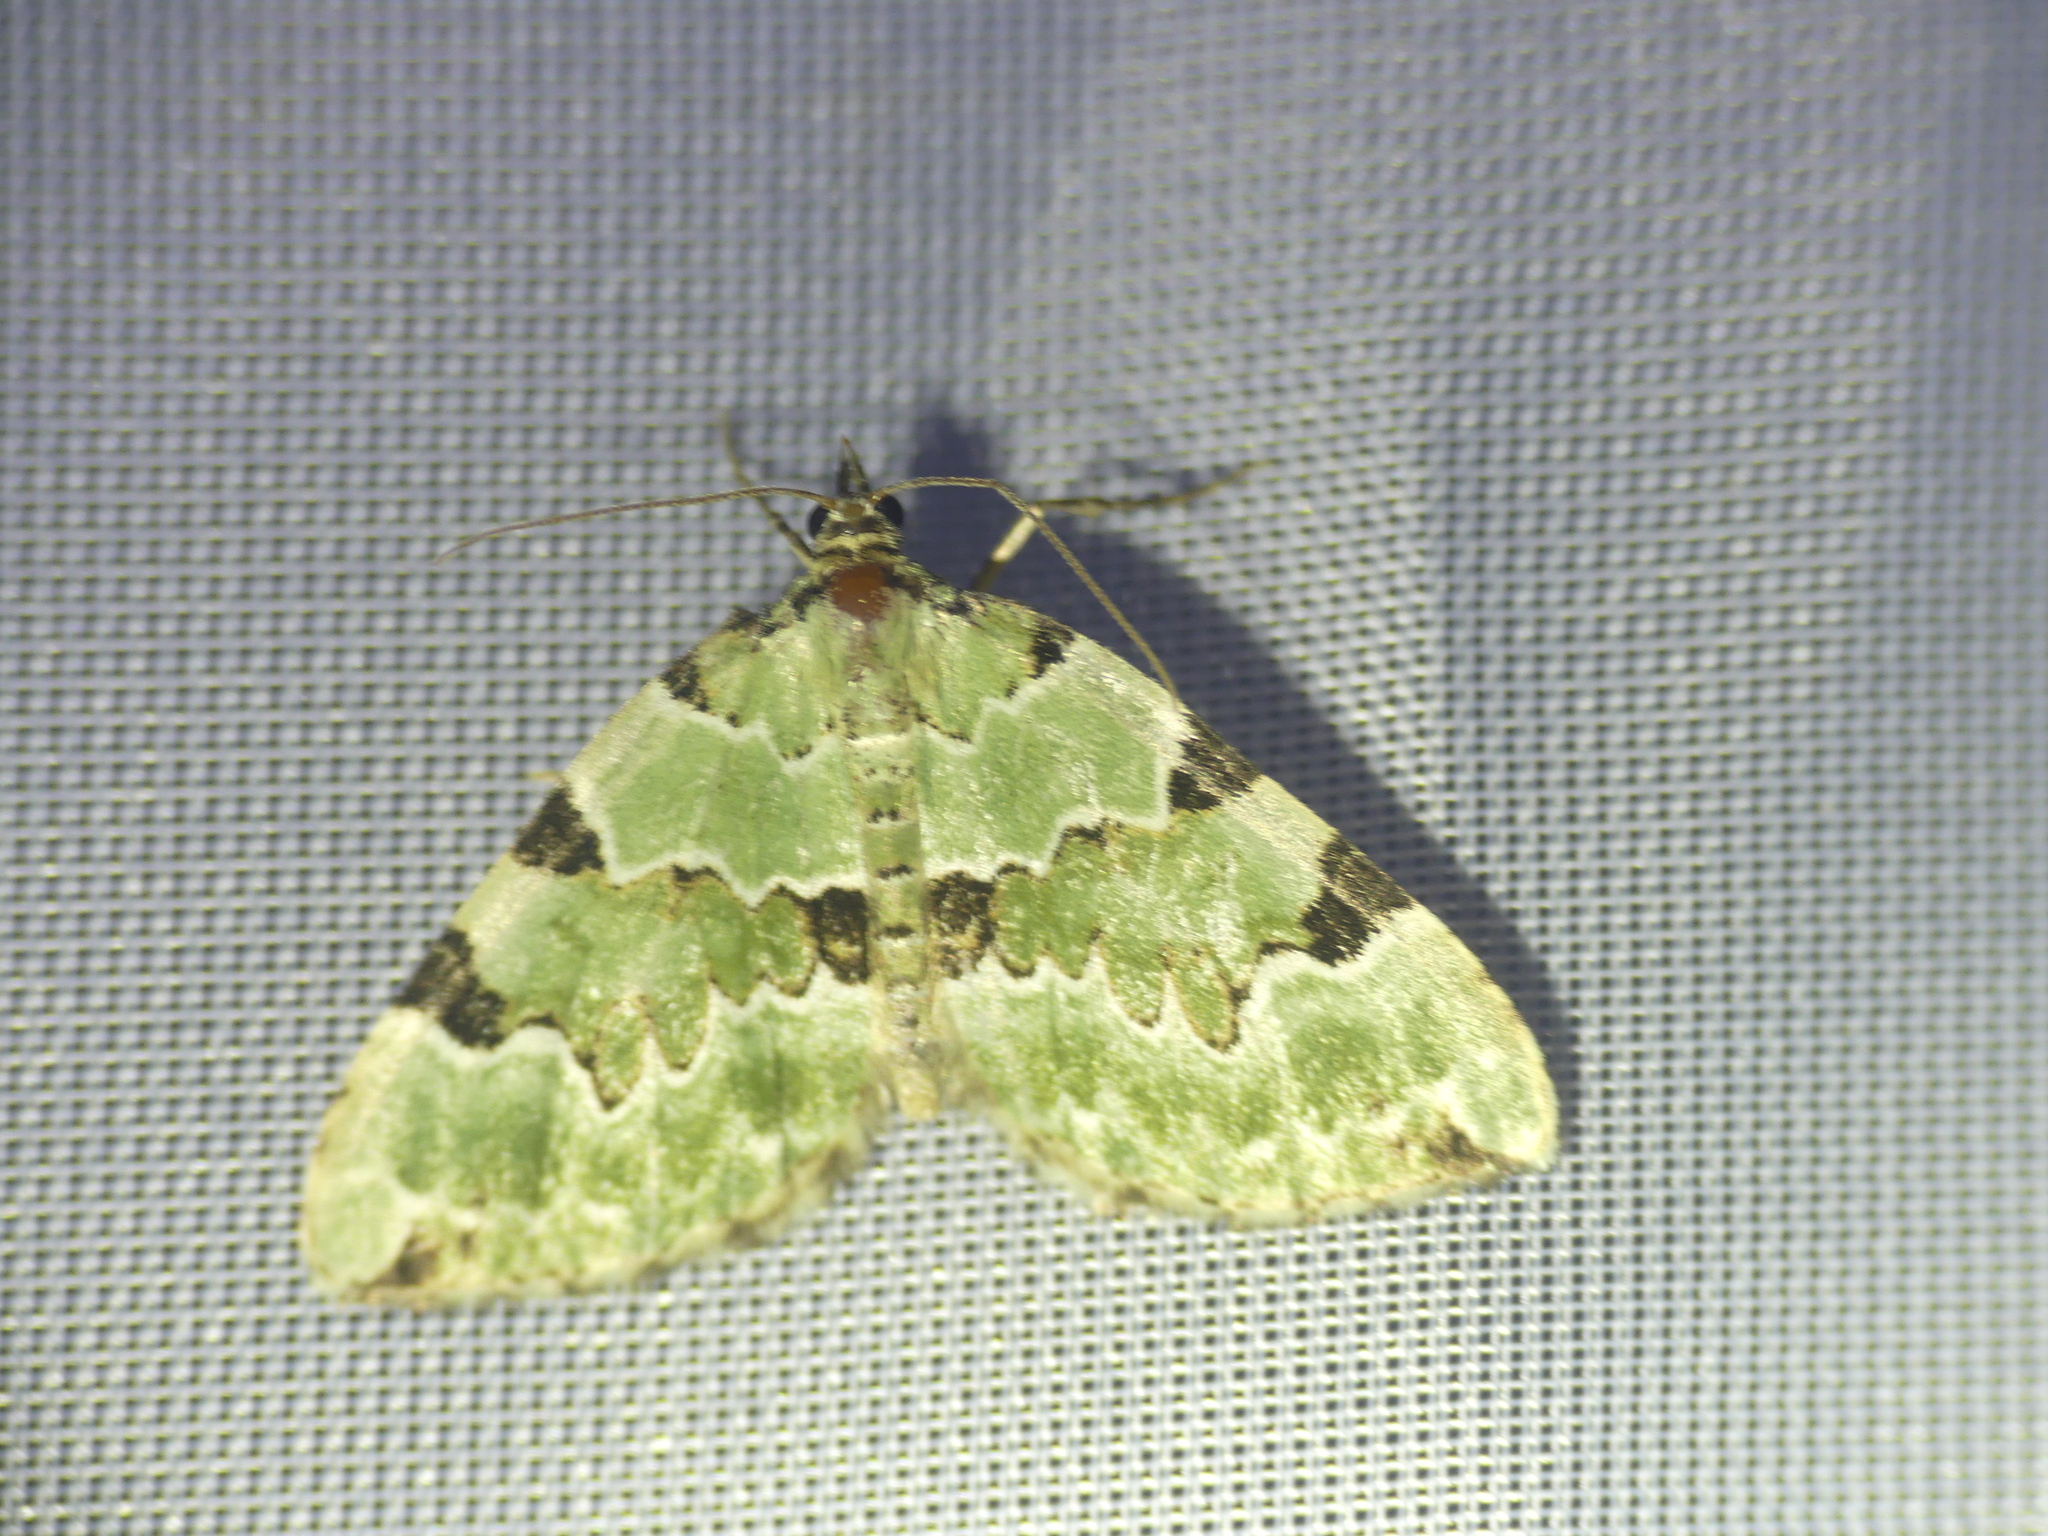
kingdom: Animalia
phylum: Arthropoda
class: Insecta
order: Lepidoptera
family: Geometridae
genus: Colostygia
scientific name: Colostygia pectinataria
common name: Green carpet
